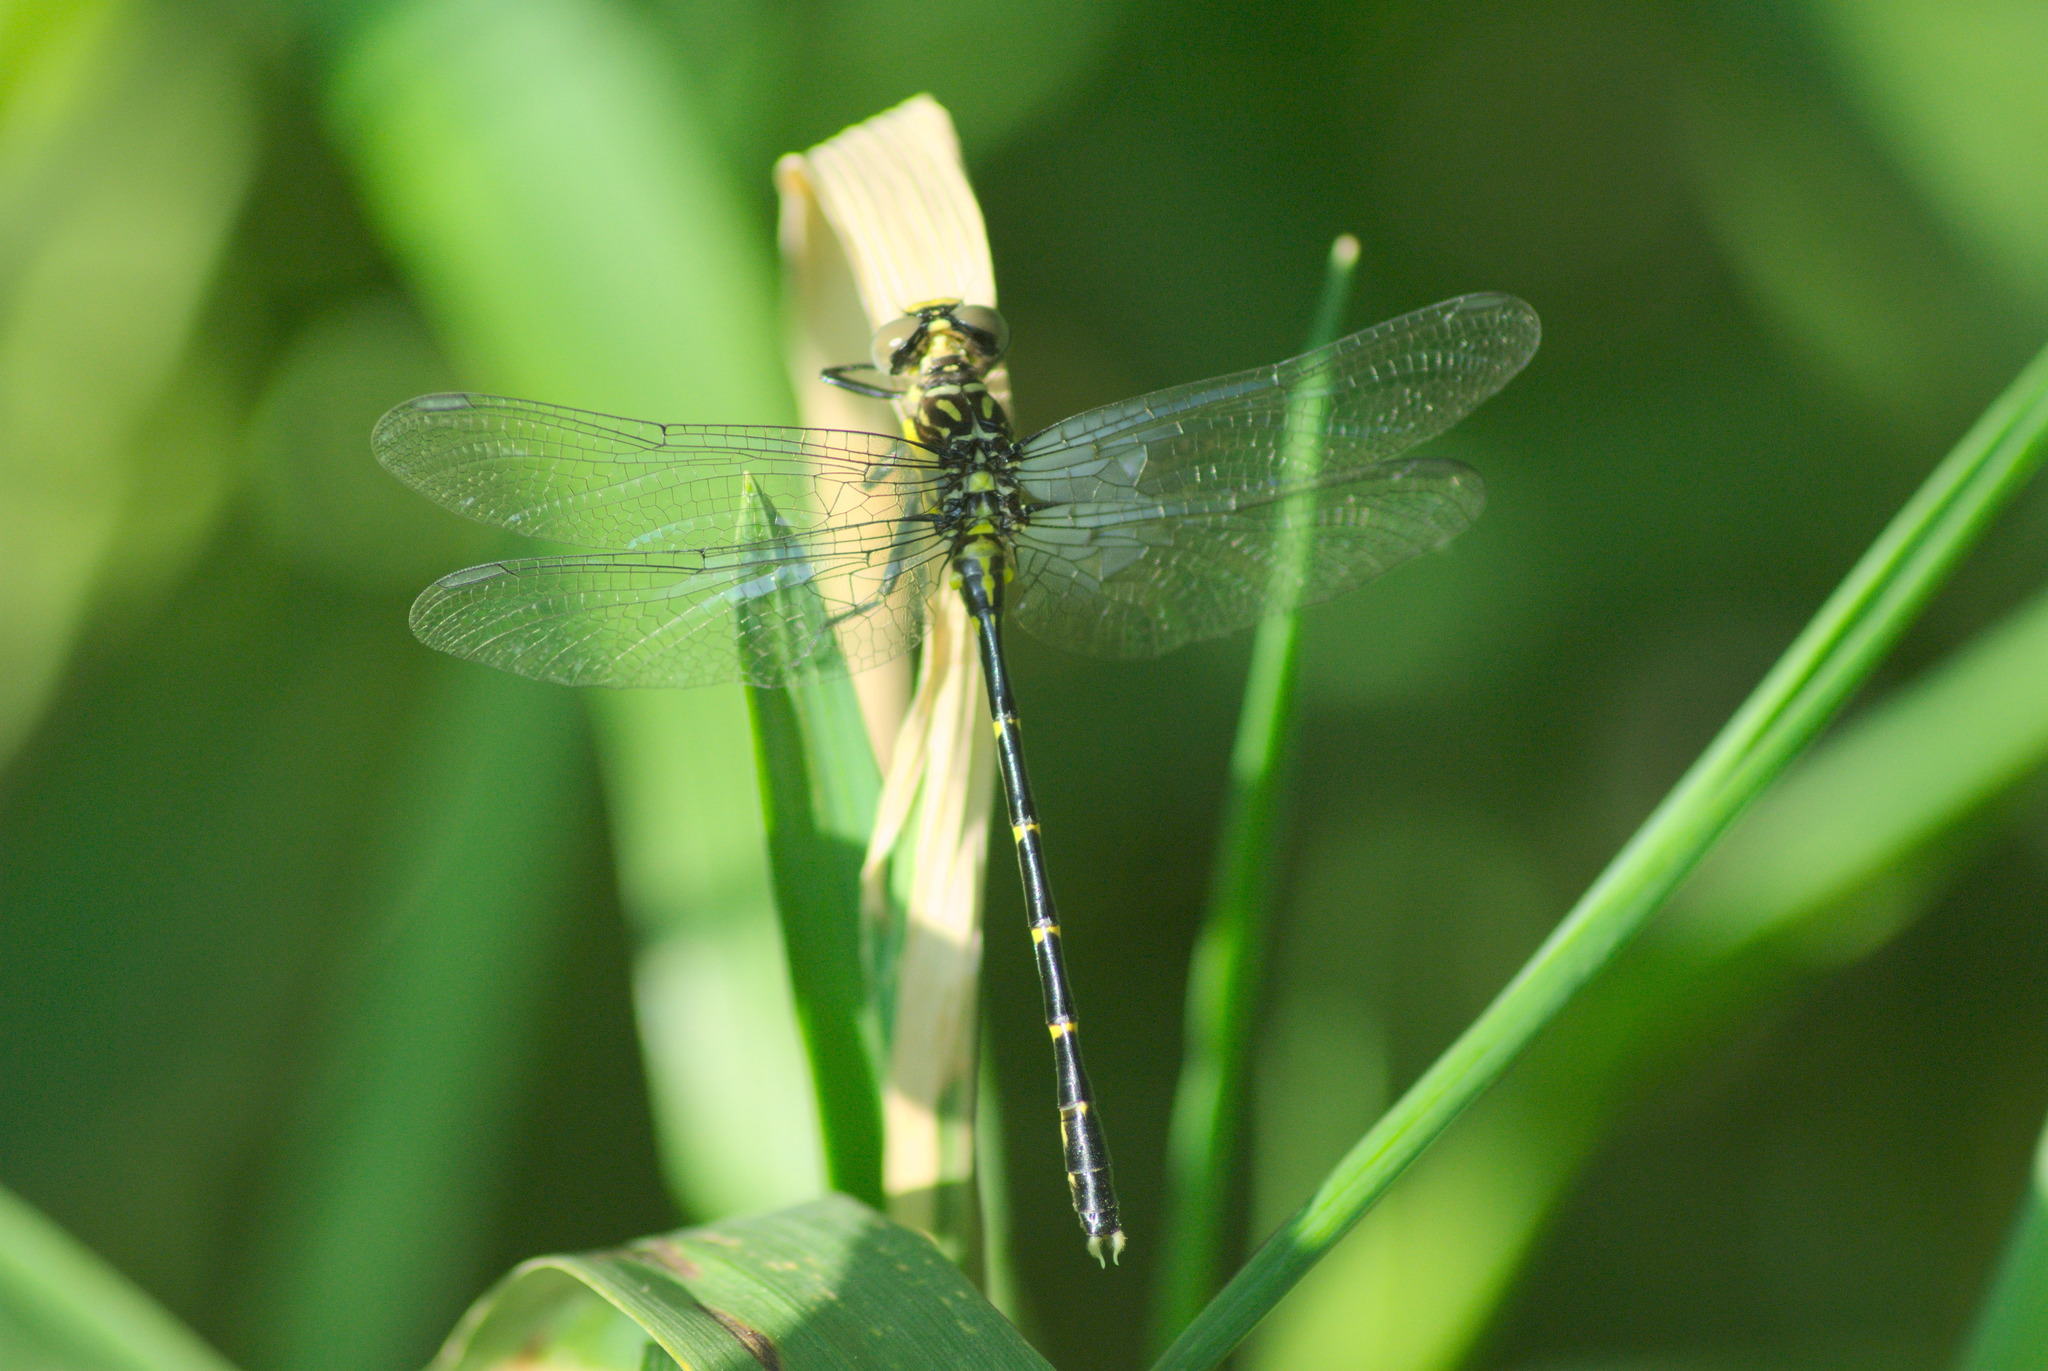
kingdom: Animalia
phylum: Arthropoda
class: Insecta
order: Odonata
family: Gomphidae
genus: Stylogomphus
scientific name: Stylogomphus albistylus
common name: Eastern least clubtail
